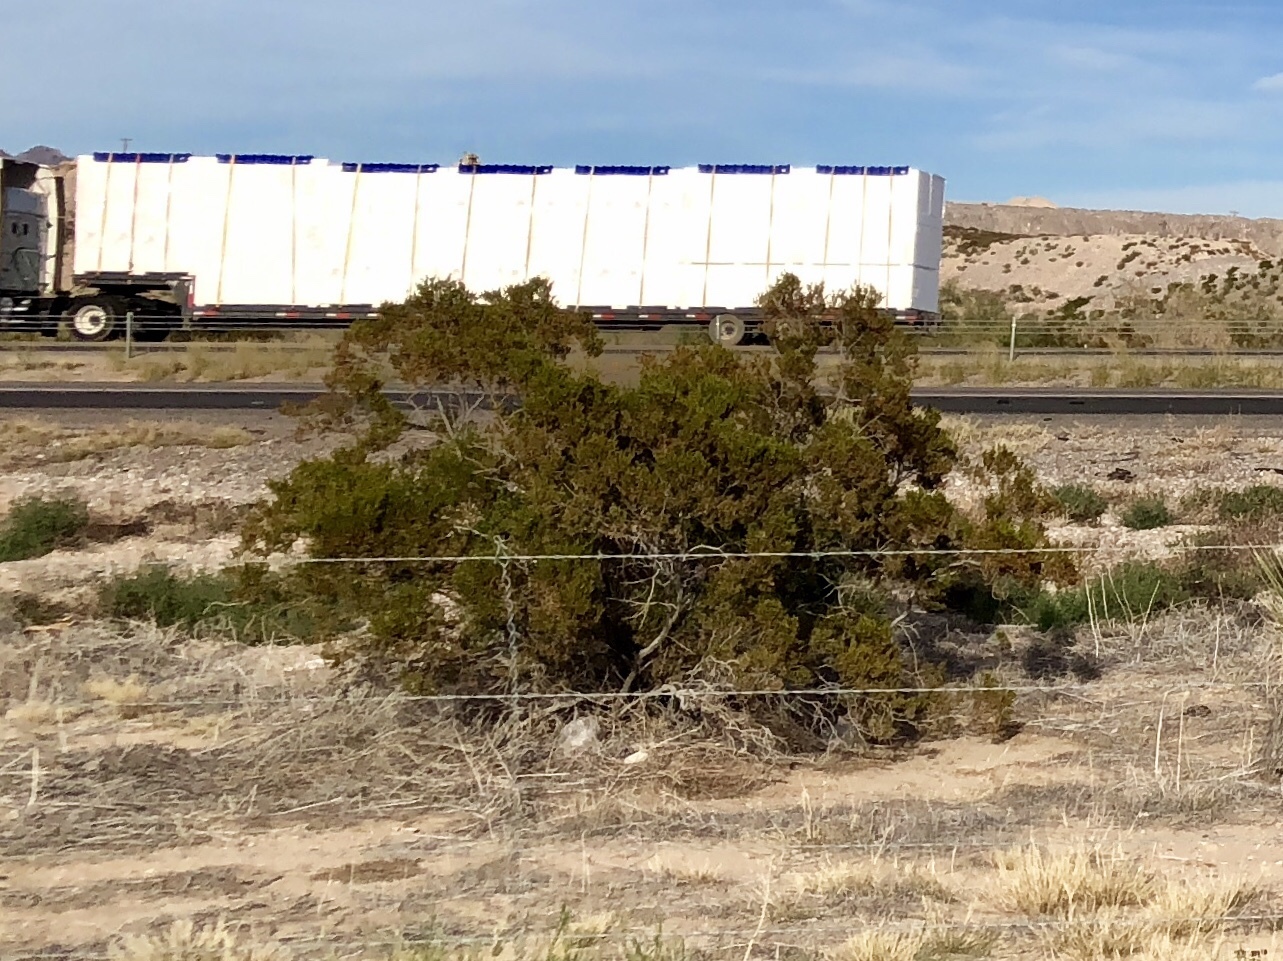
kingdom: Plantae
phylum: Tracheophyta
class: Magnoliopsida
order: Zygophyllales
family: Zygophyllaceae
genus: Larrea
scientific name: Larrea tridentata
